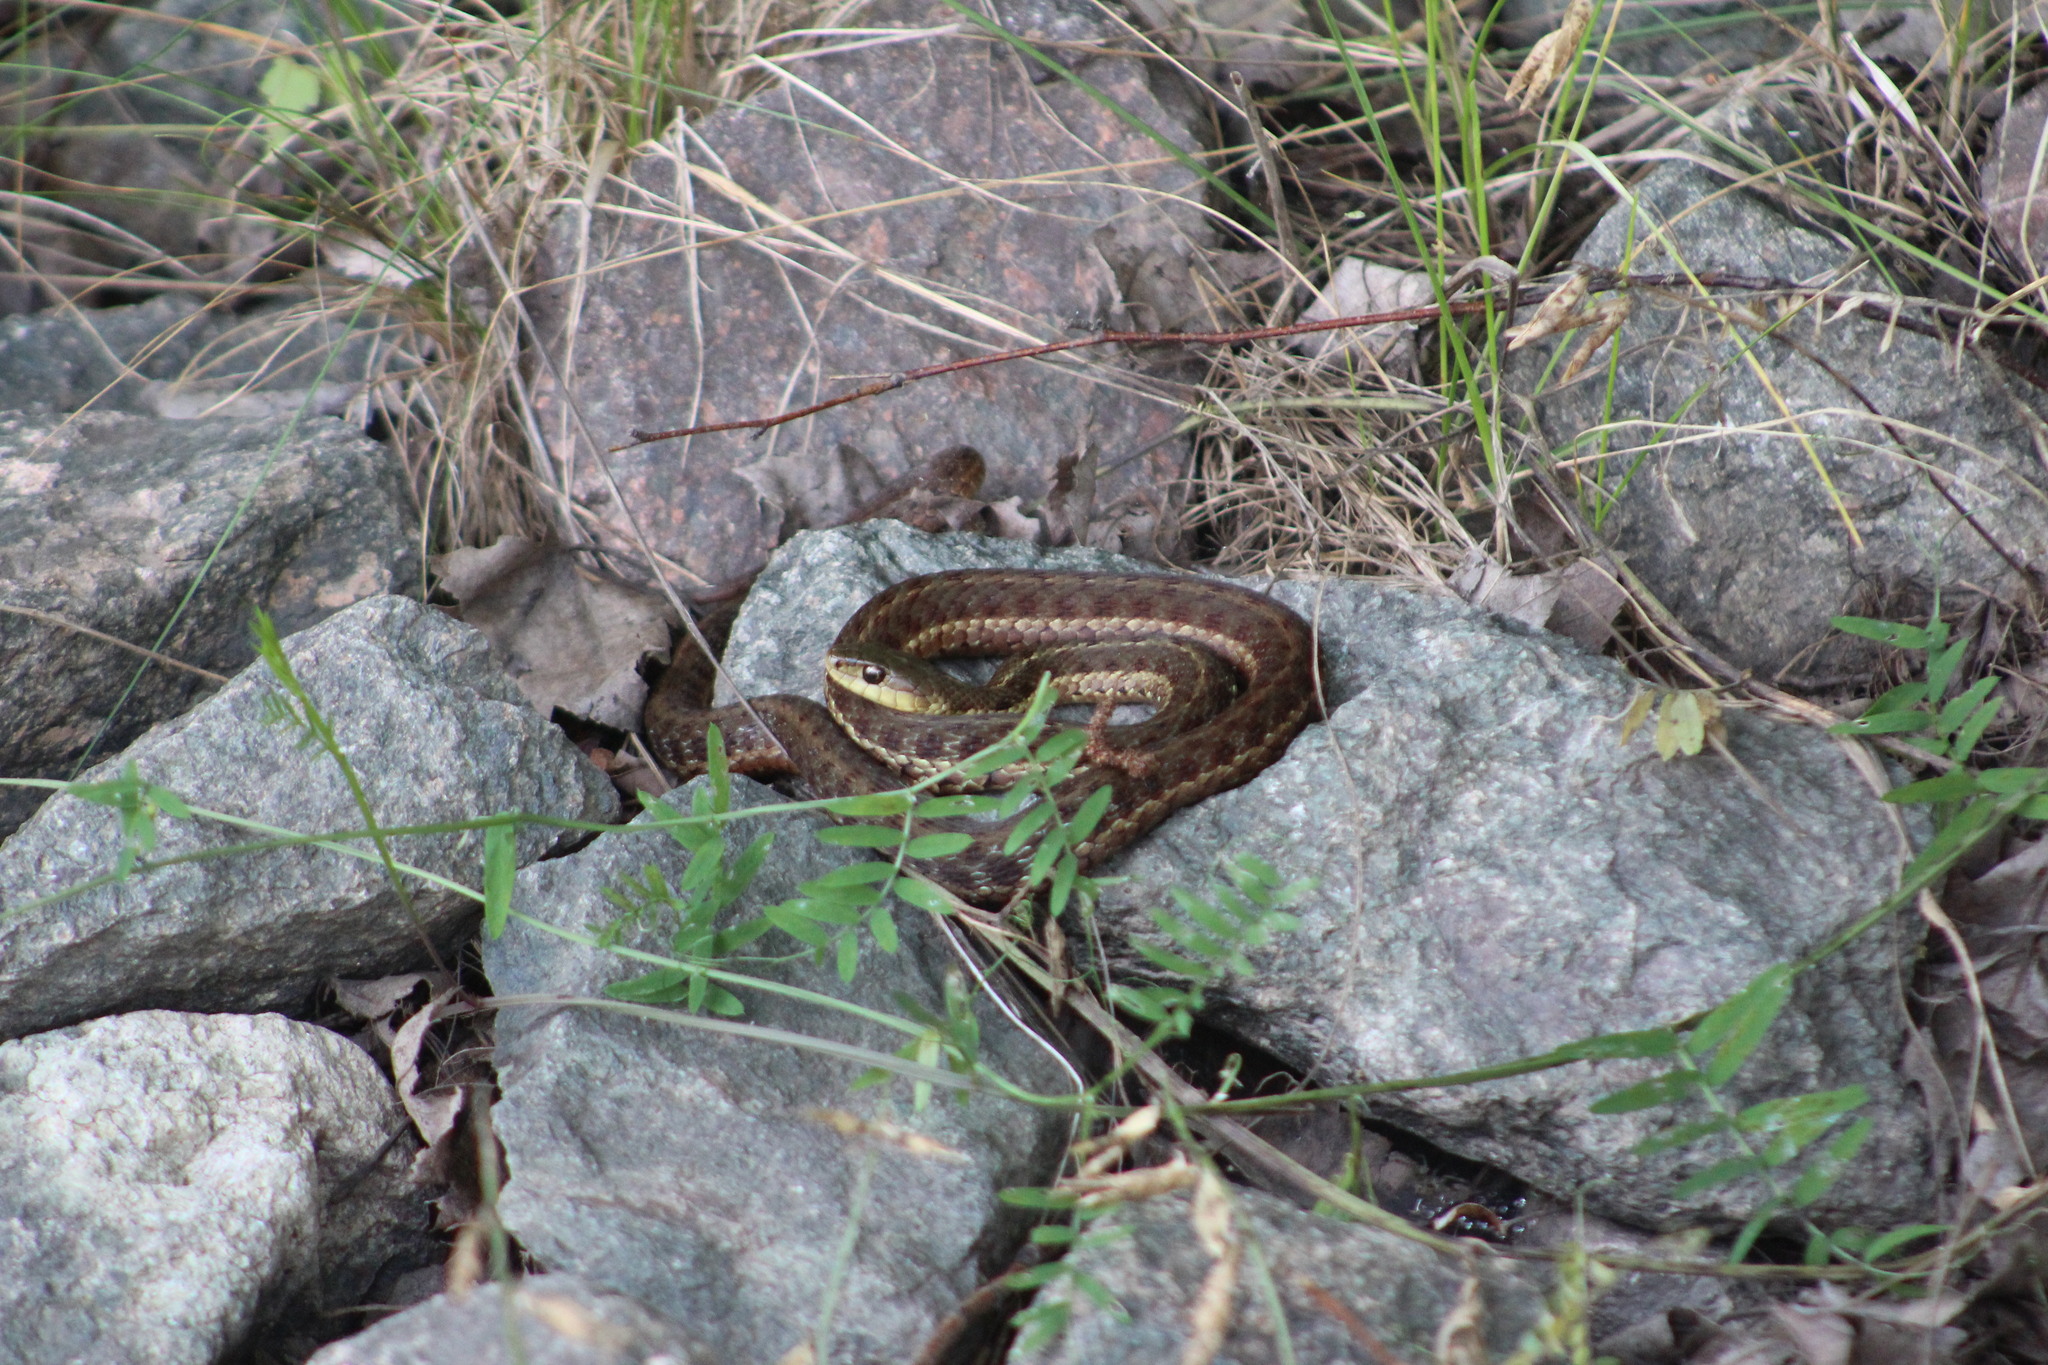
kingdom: Animalia
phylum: Chordata
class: Squamata
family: Colubridae
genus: Thamnophis
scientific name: Thamnophis sirtalis
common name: Common garter snake
